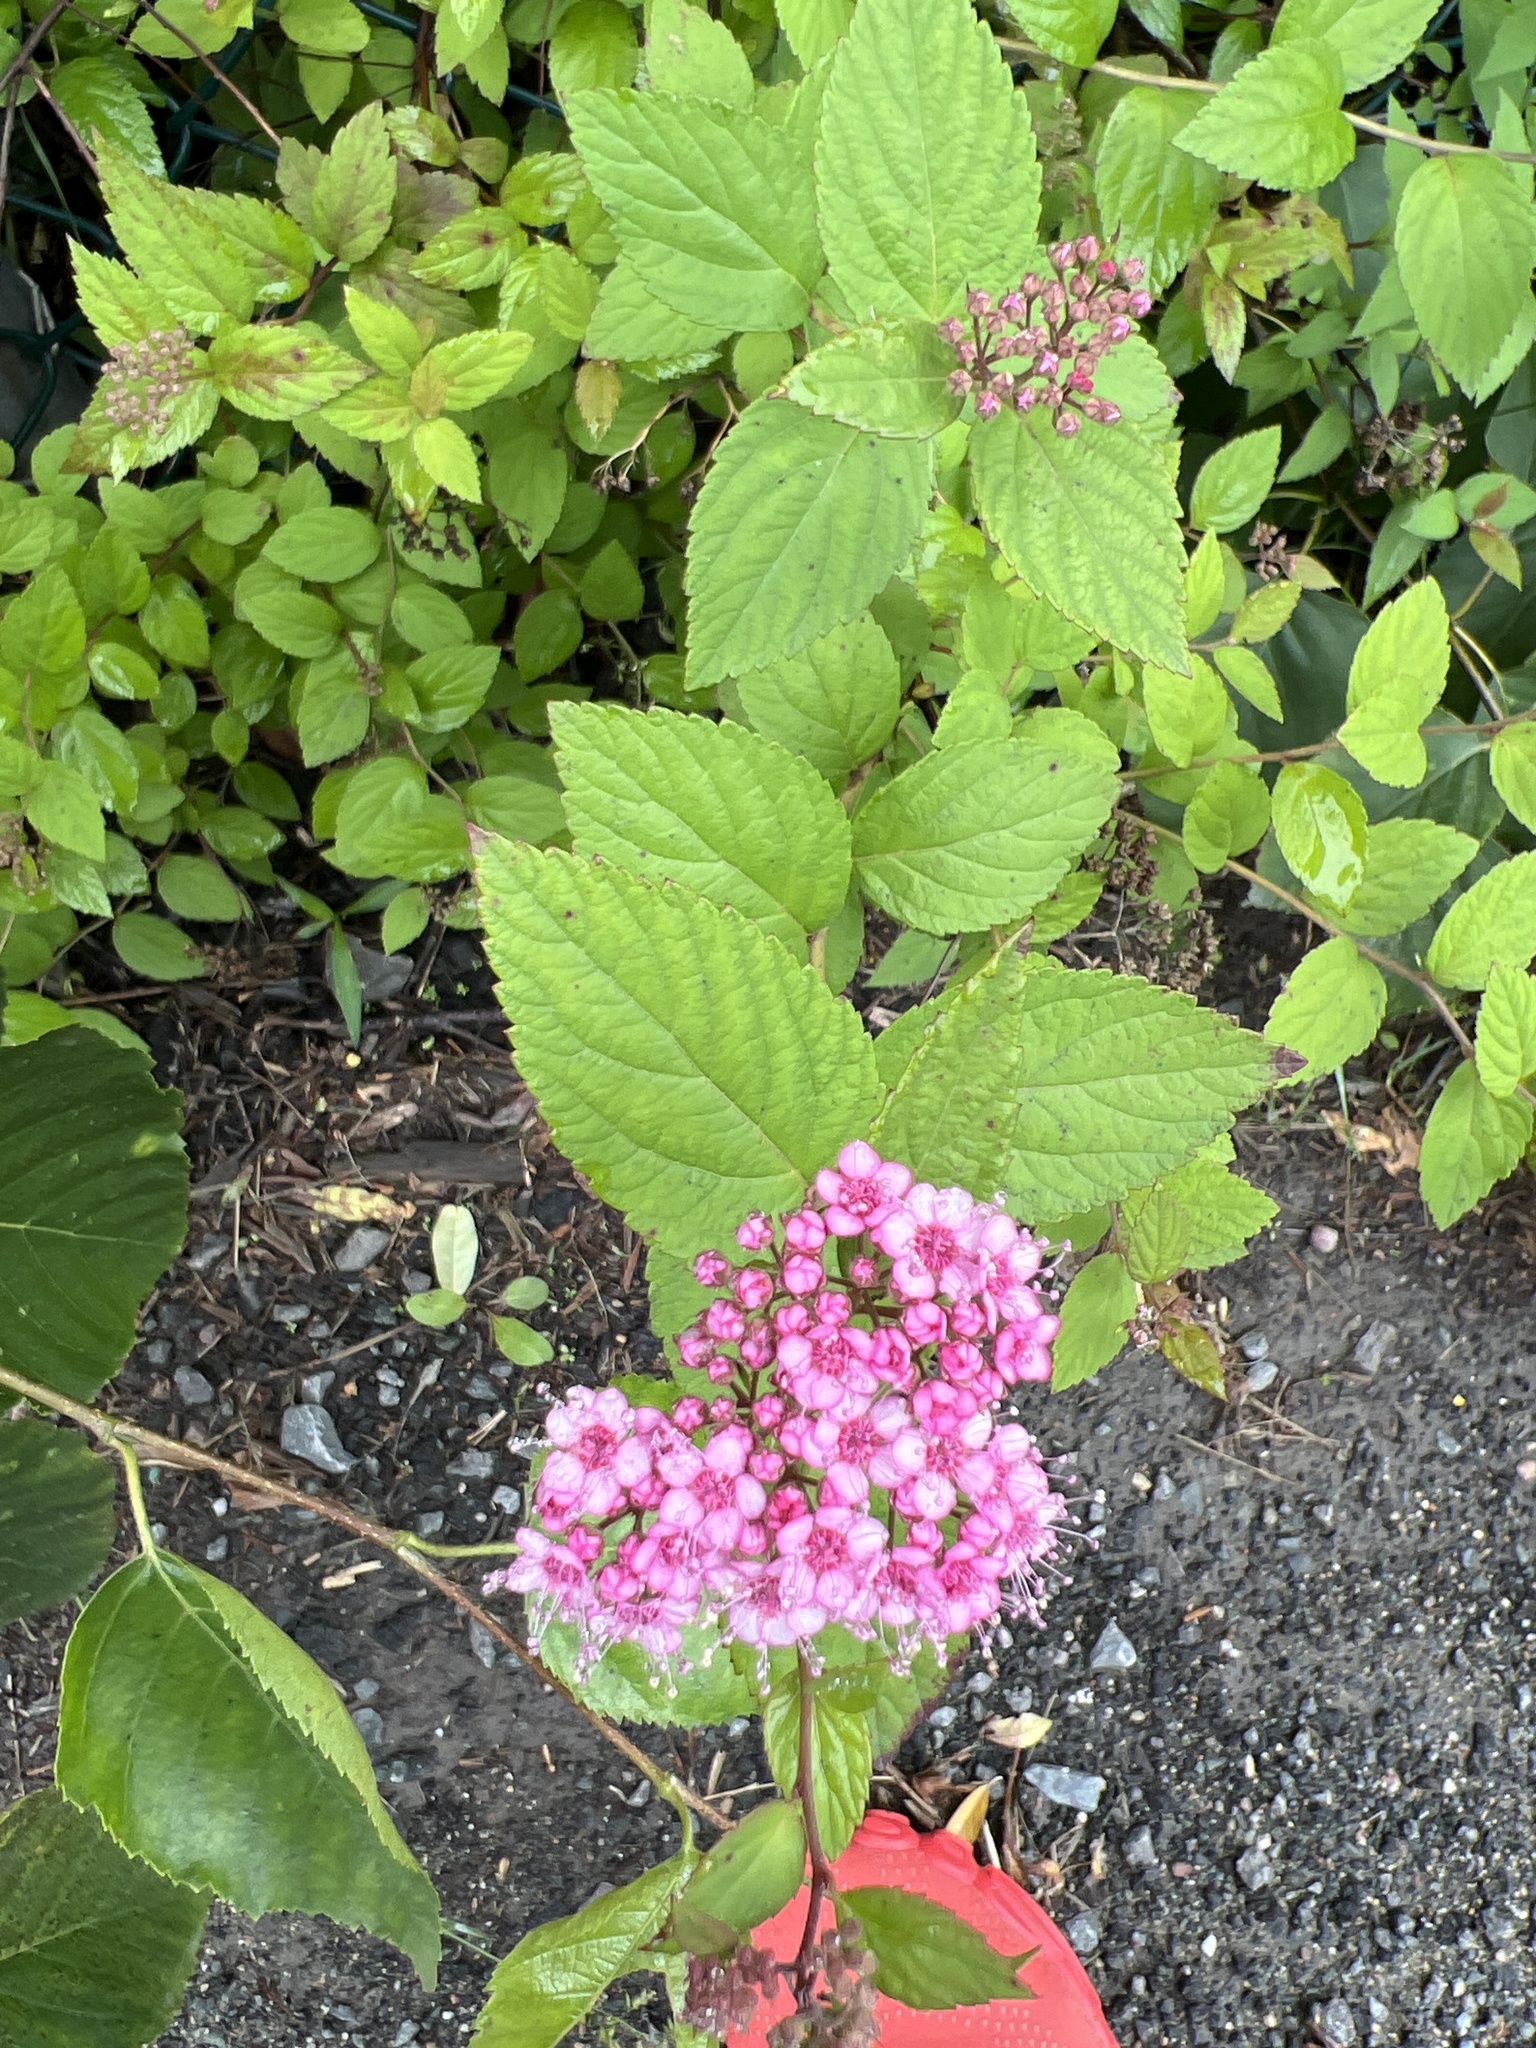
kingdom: Plantae
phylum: Tracheophyta
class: Magnoliopsida
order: Rosales
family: Rosaceae
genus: Spiraea
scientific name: Spiraea japonica
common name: Japanese spiraea
